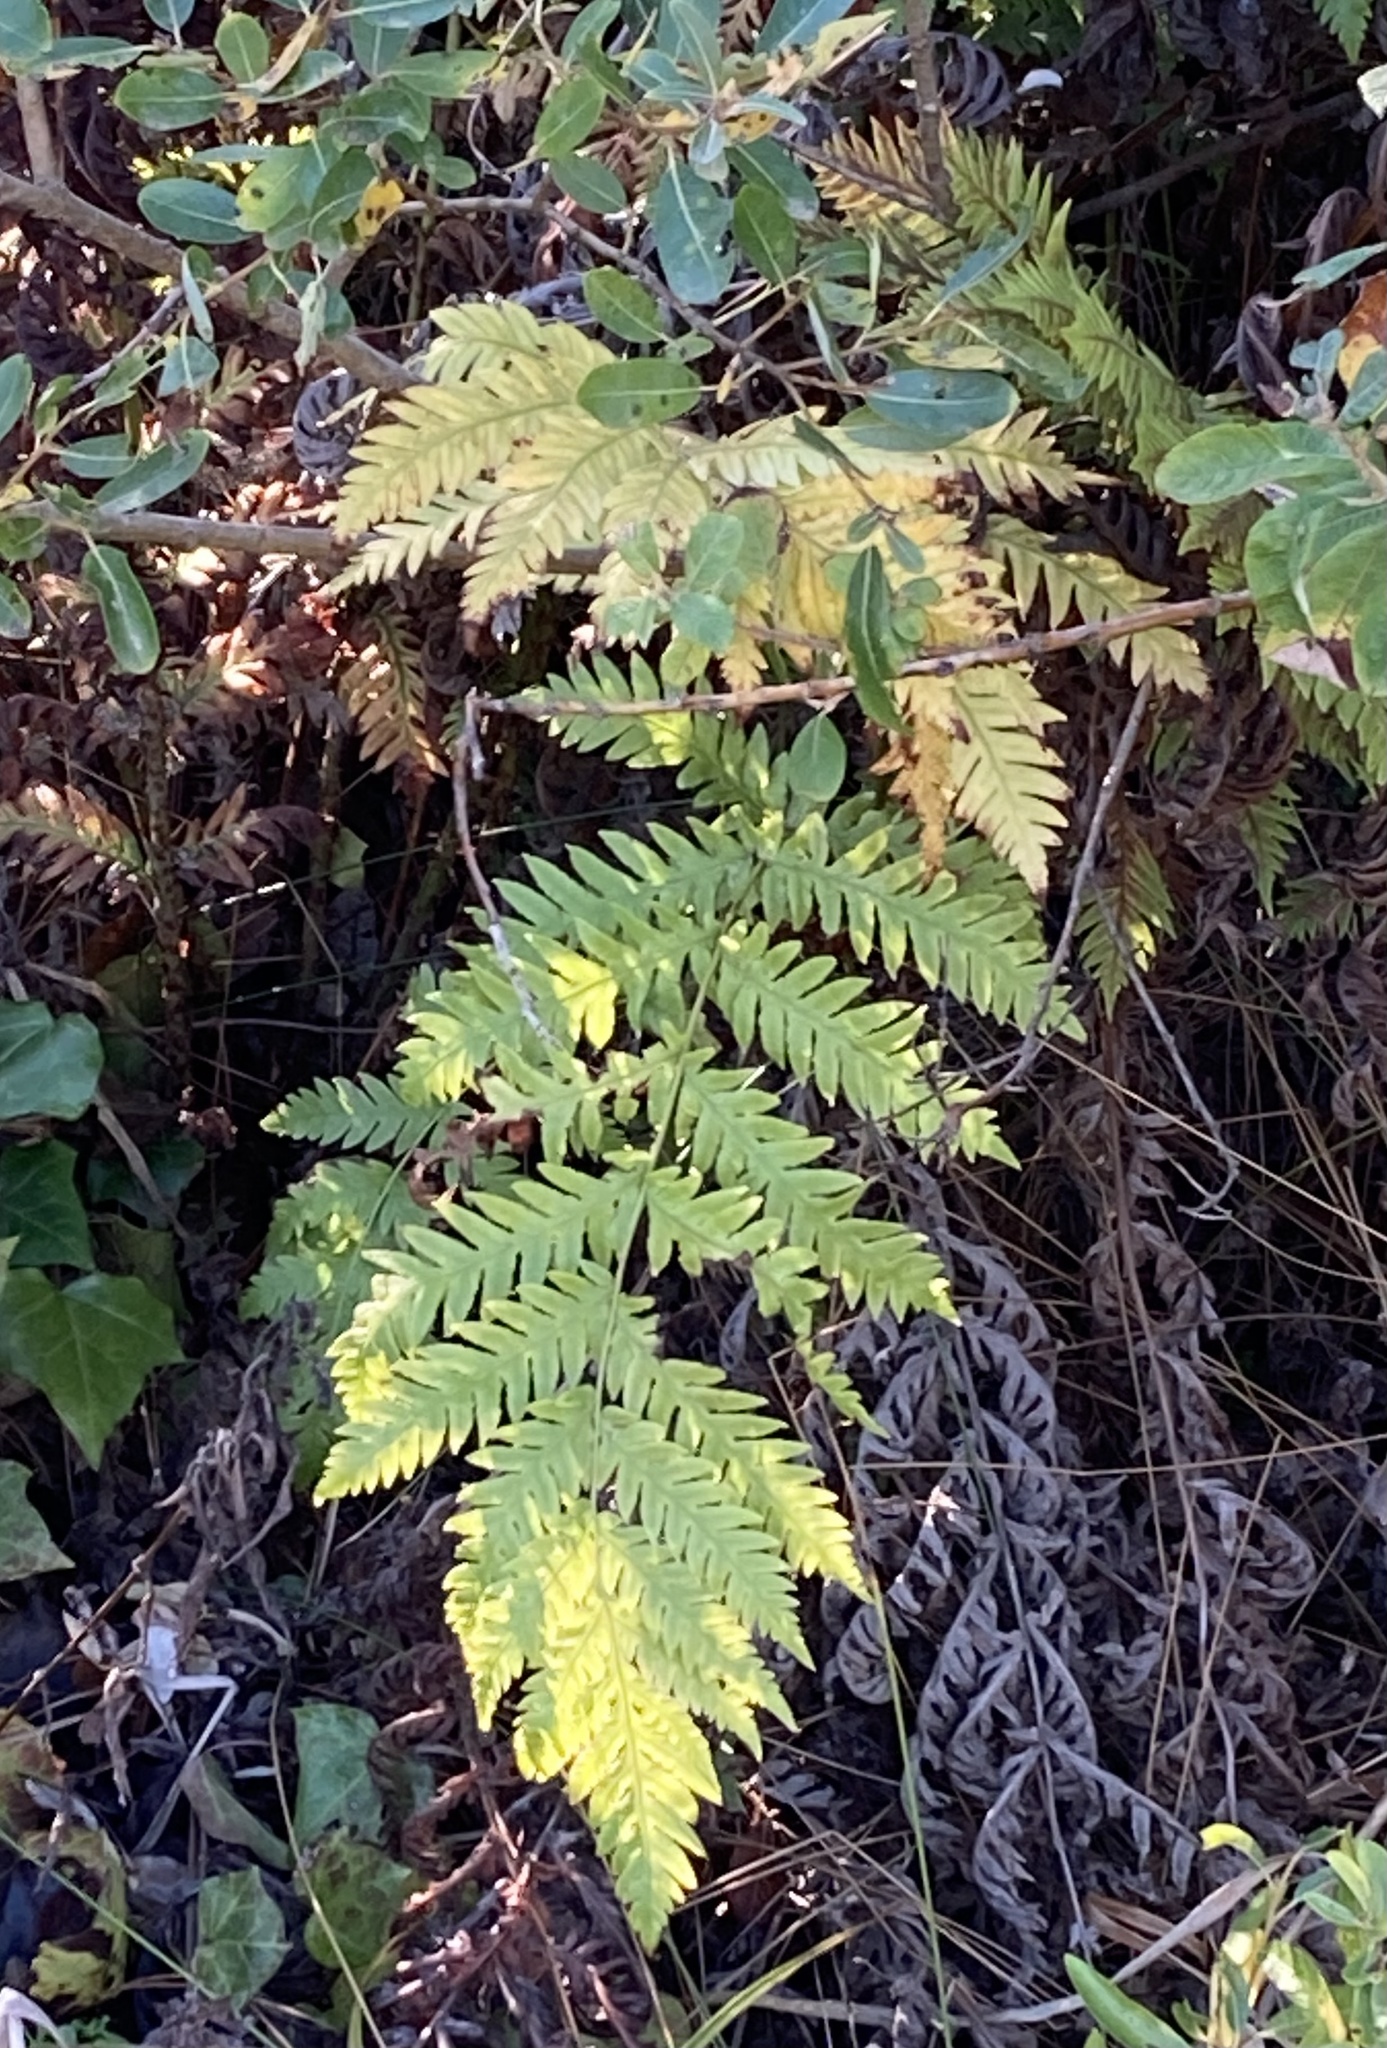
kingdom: Plantae
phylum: Tracheophyta
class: Polypodiopsida
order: Polypodiales
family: Blechnaceae
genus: Woodwardia
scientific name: Woodwardia fimbriata
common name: Giant chain fern
